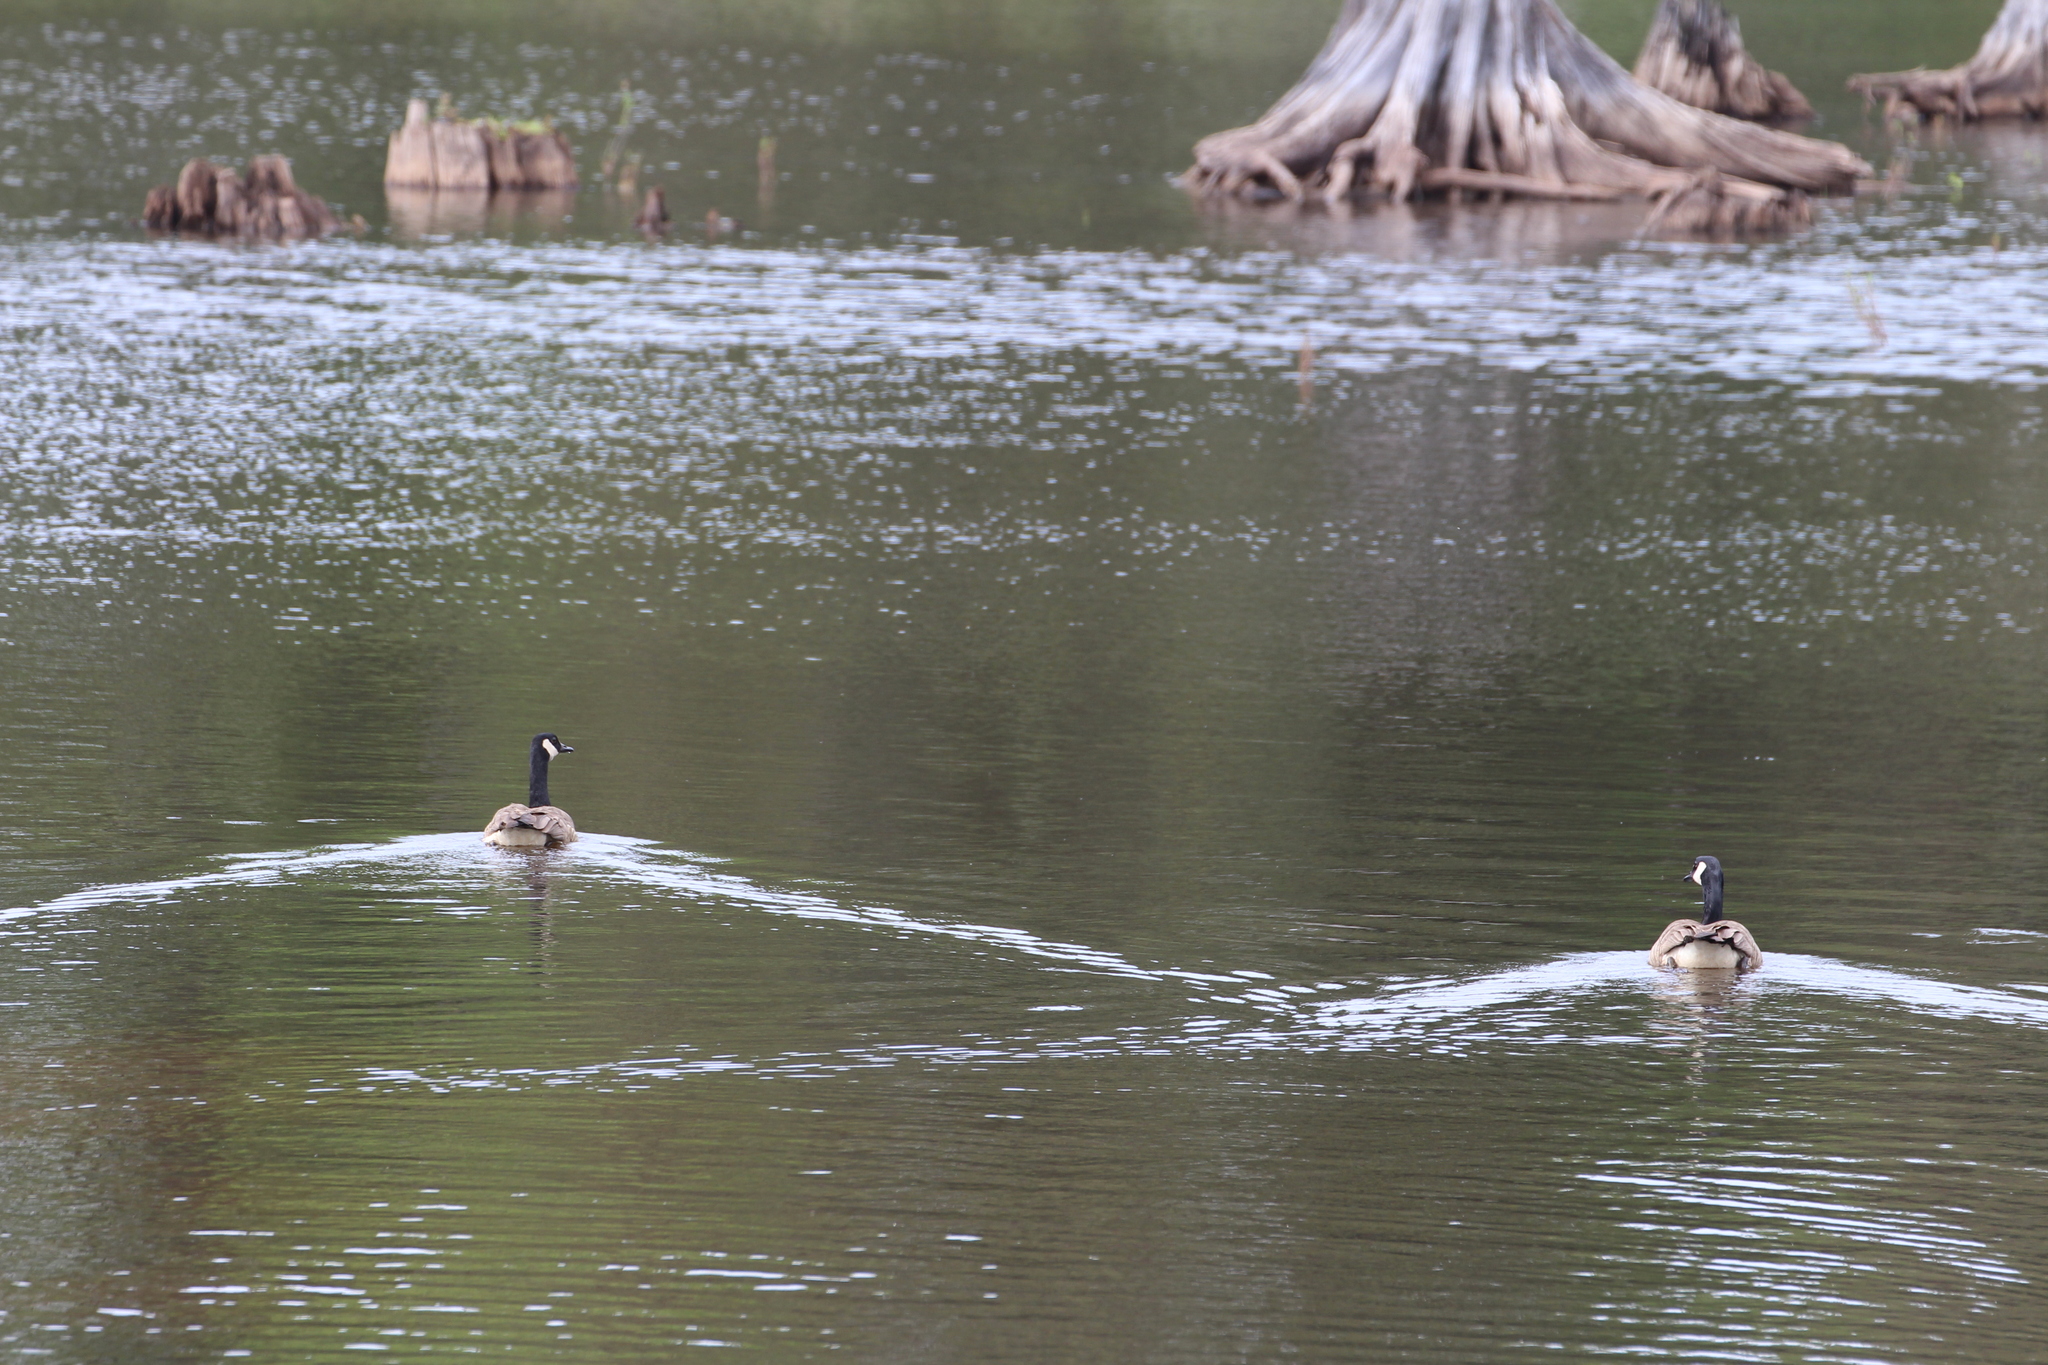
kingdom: Animalia
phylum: Chordata
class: Aves
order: Anseriformes
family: Anatidae
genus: Branta
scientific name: Branta canadensis
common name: Canada goose
